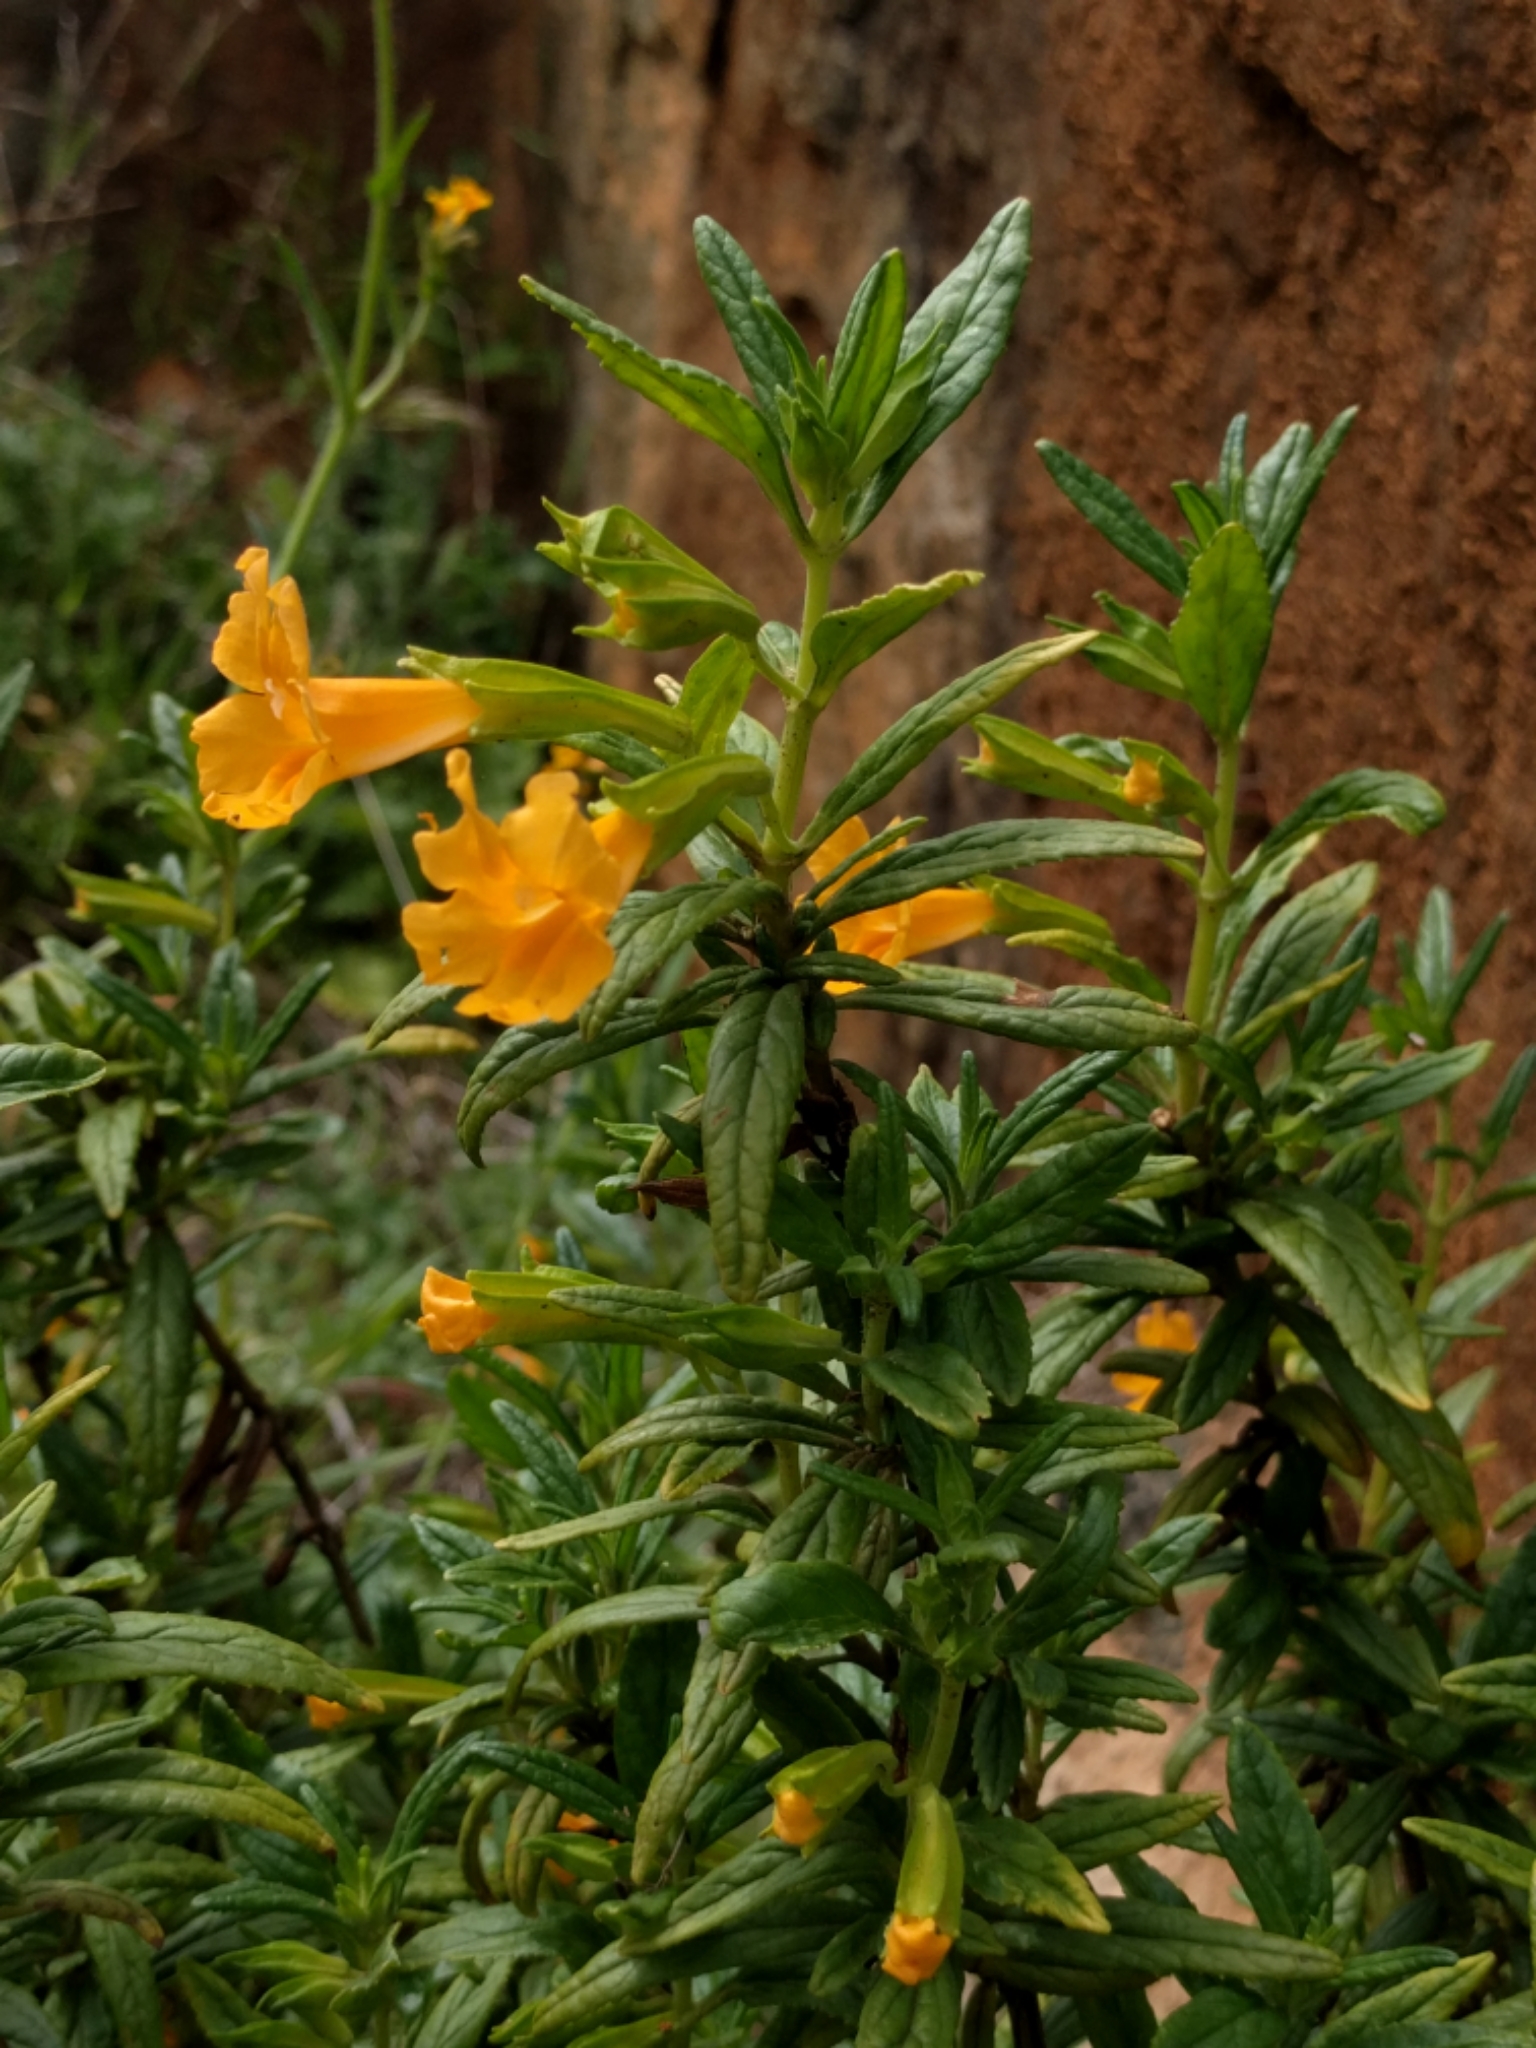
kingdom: Plantae
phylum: Tracheophyta
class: Magnoliopsida
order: Lamiales
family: Phrymaceae
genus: Diplacus
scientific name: Diplacus aurantiacus
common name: Bush monkey-flower
